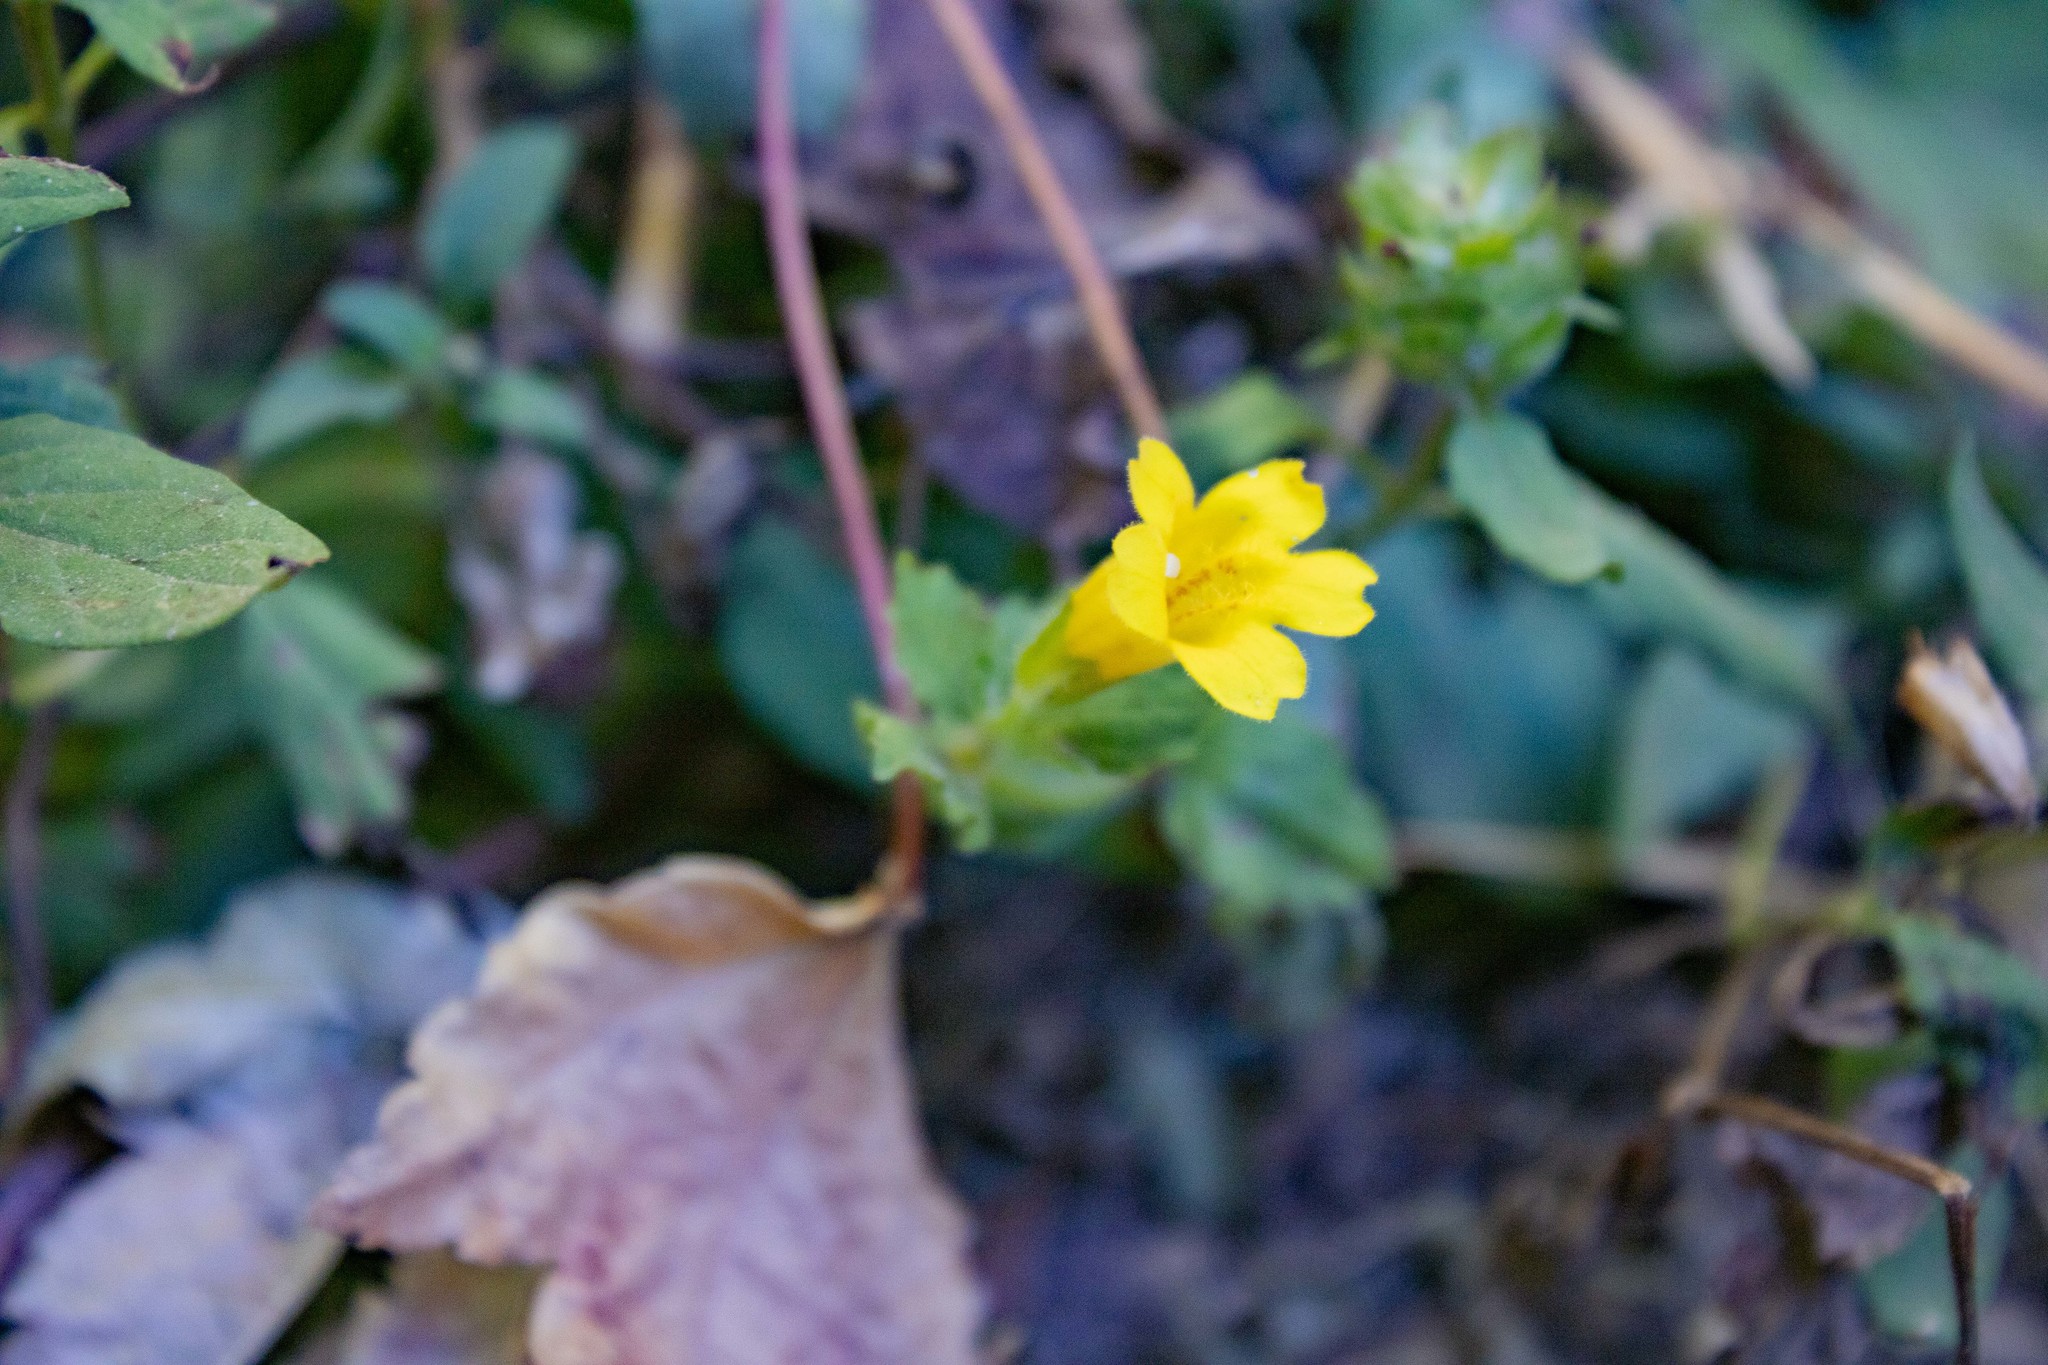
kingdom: Plantae
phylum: Tracheophyta
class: Magnoliopsida
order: Lamiales
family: Phrymaceae
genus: Erythranthe
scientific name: Erythranthe dentata
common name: Coastal monkeyflower
